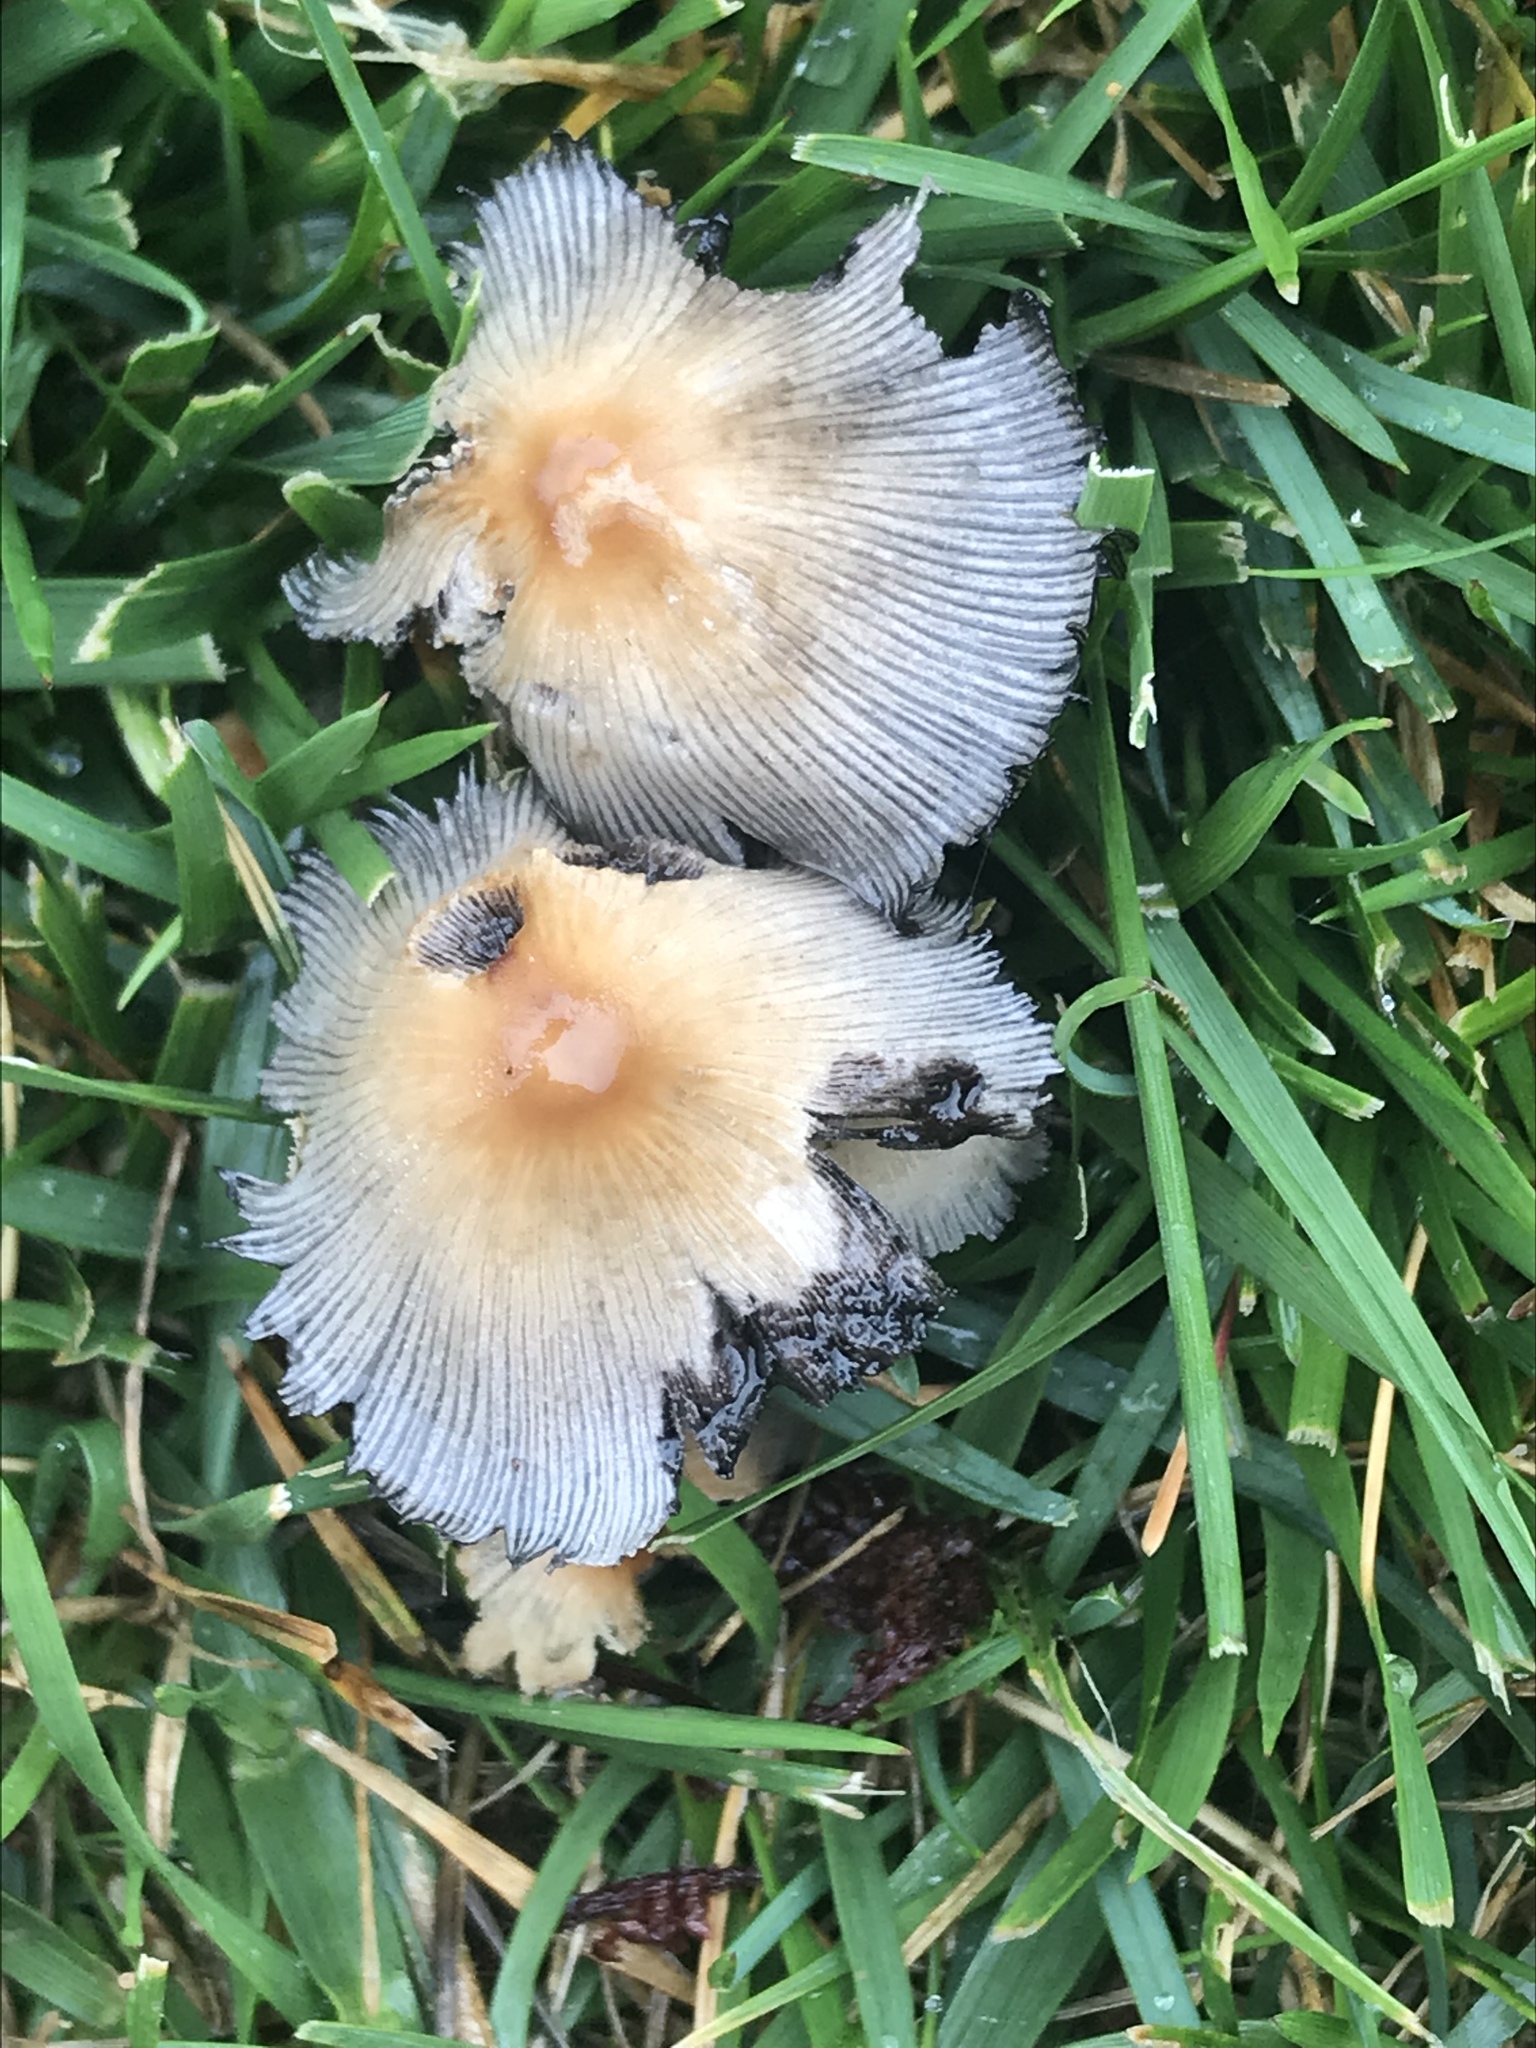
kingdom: Fungi
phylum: Basidiomycota
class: Agaricomycetes
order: Agaricales
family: Psathyrellaceae
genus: Coprinellus
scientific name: Coprinellus micaceus
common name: Glistening ink-cap
